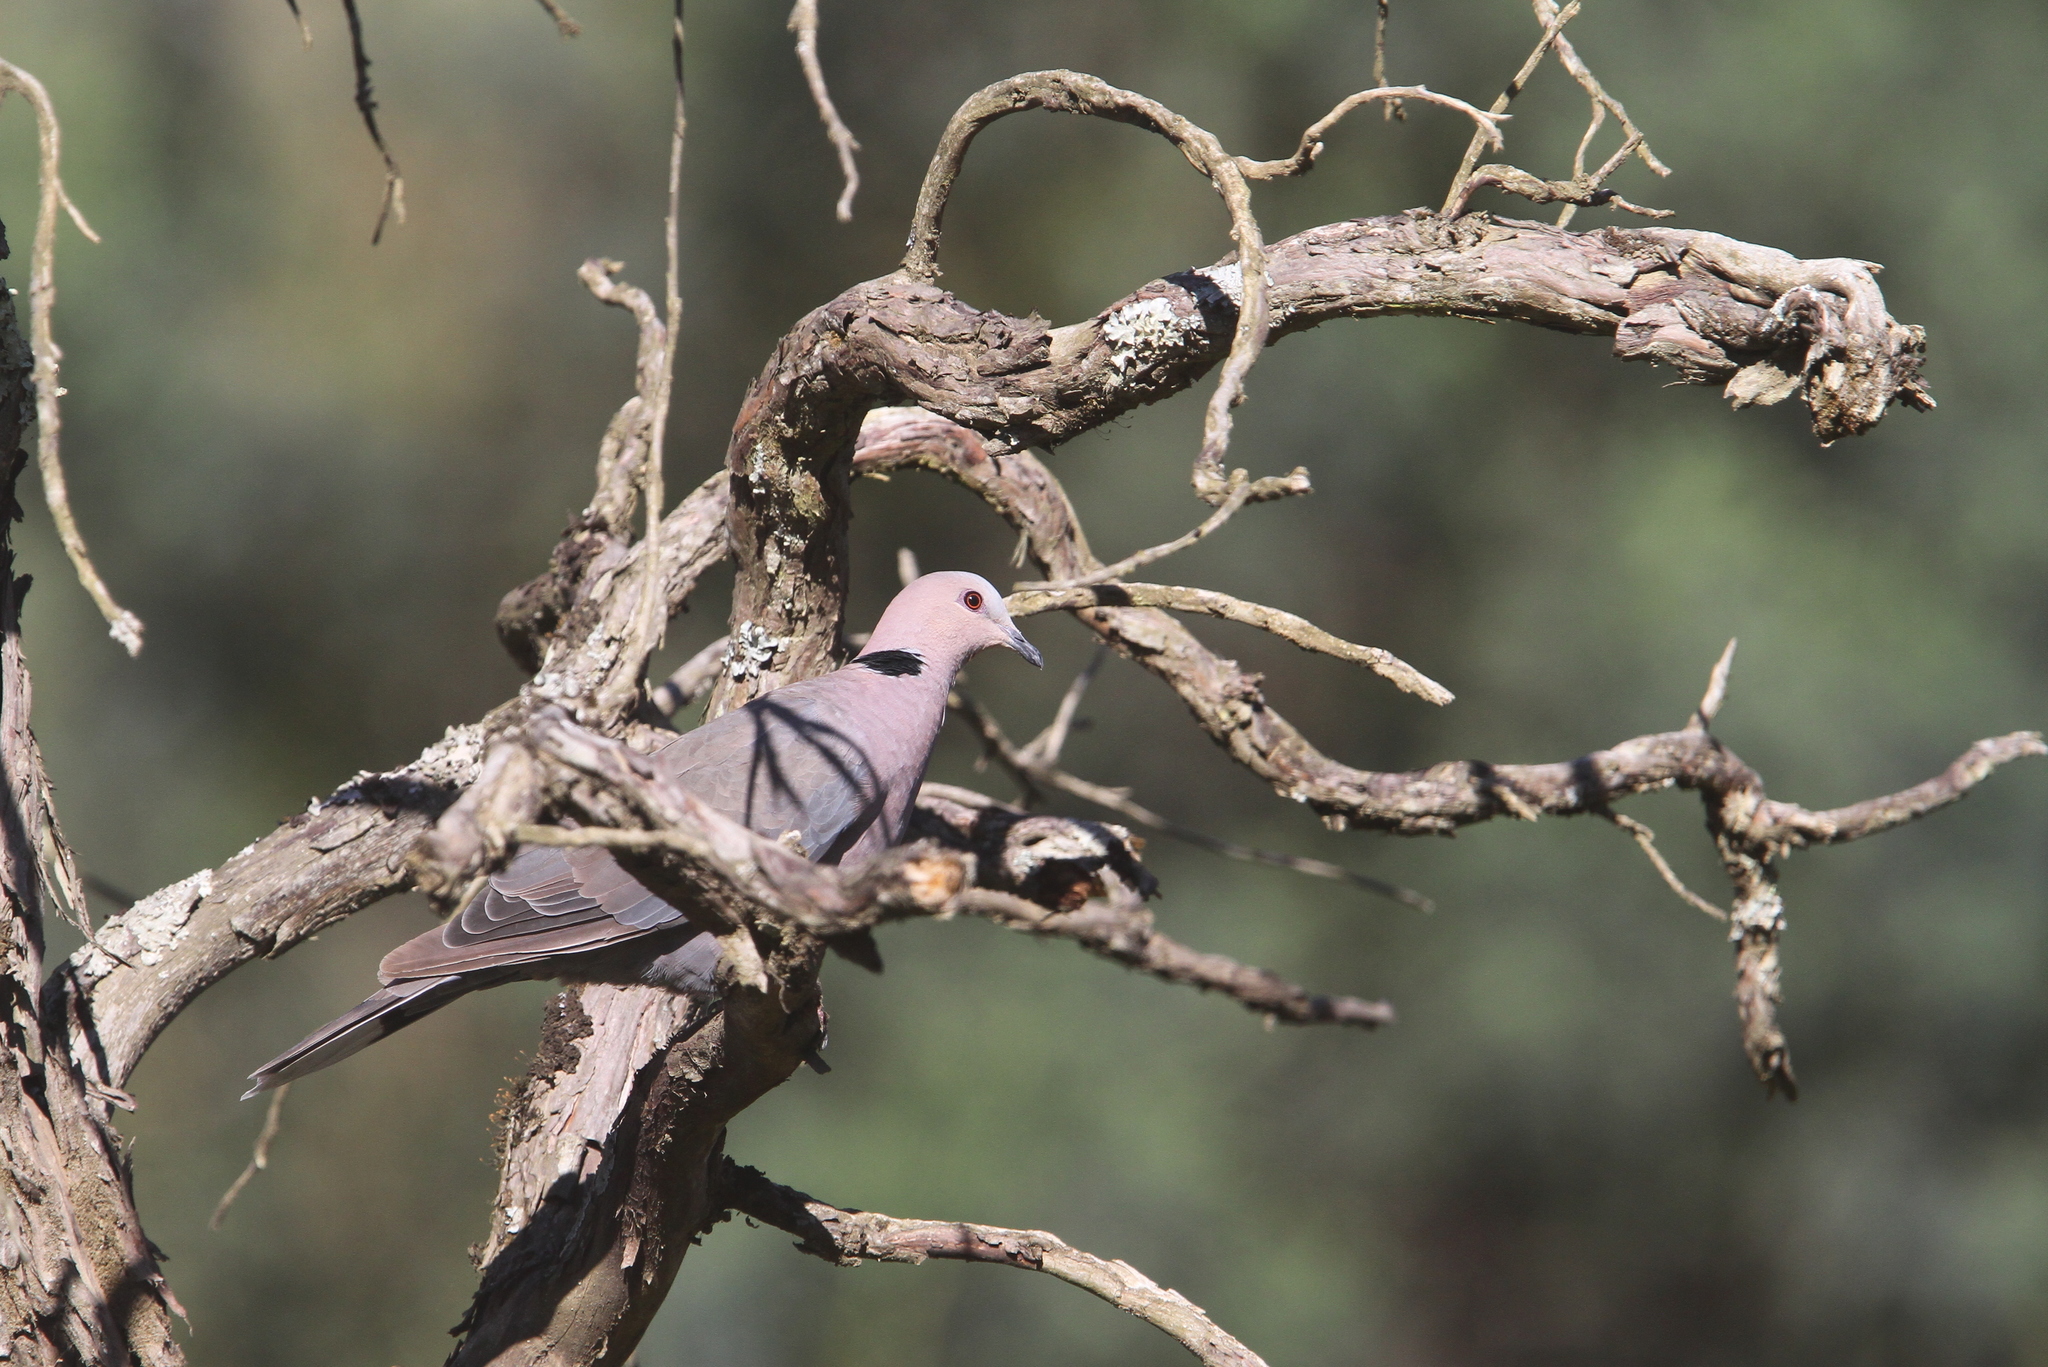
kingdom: Animalia
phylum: Chordata
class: Aves
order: Columbiformes
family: Columbidae
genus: Streptopelia
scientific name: Streptopelia semitorquata
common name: Red-eyed dove
